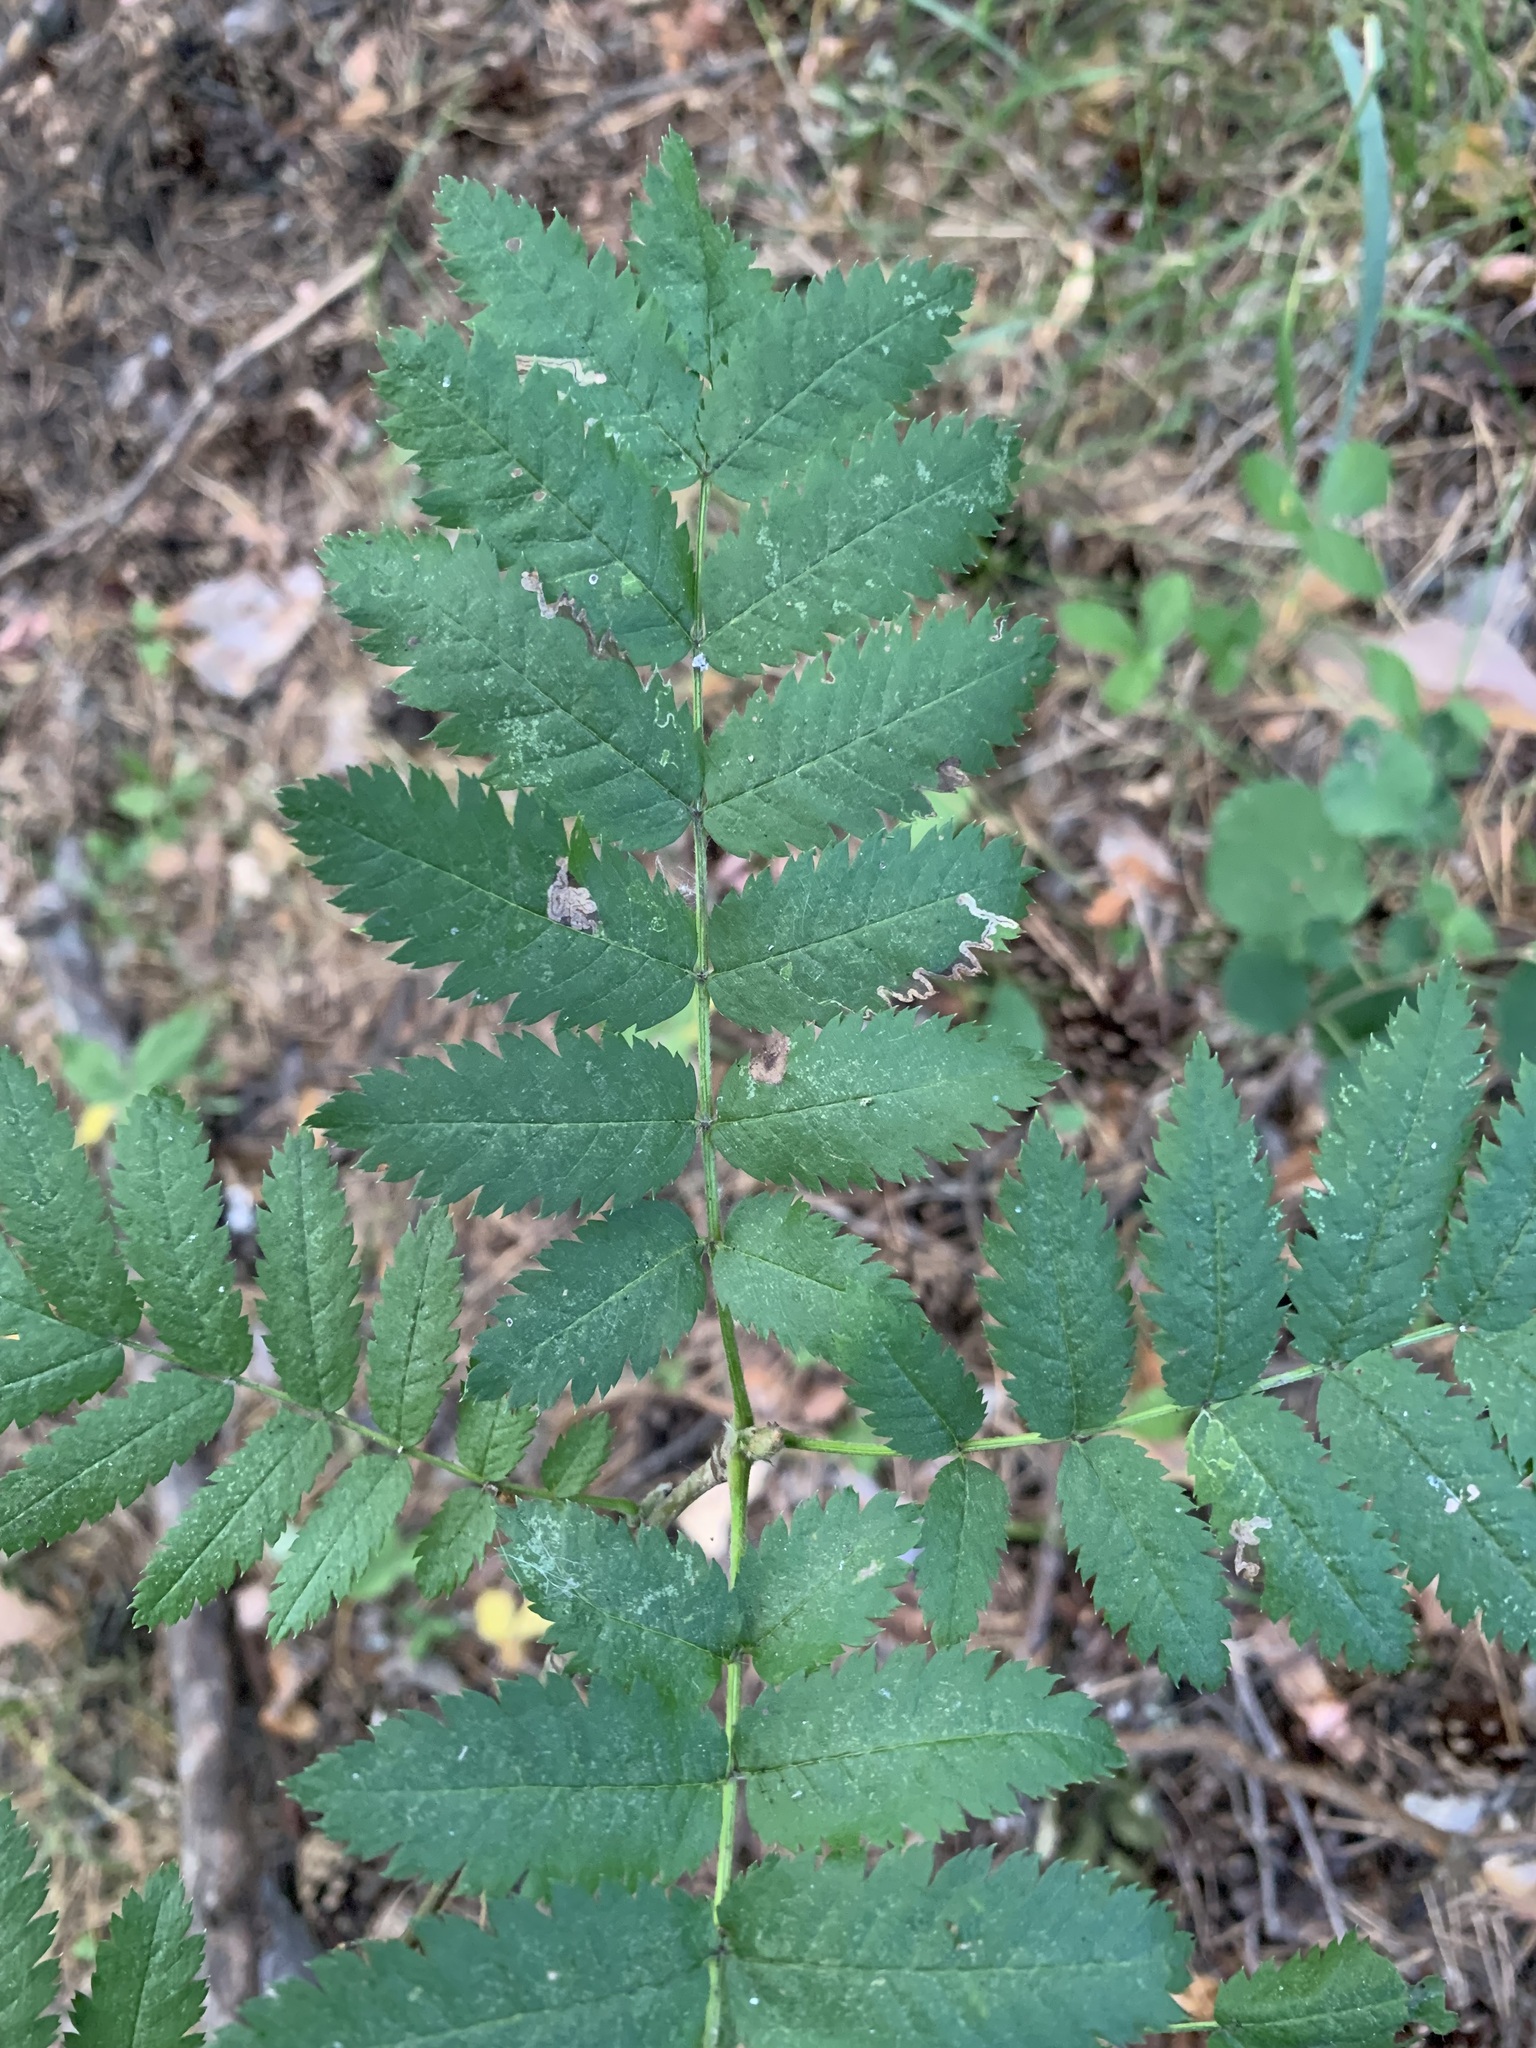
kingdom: Plantae
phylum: Tracheophyta
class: Magnoliopsida
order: Rosales
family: Rosaceae
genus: Sorbus
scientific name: Sorbus aucuparia
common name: Rowan
